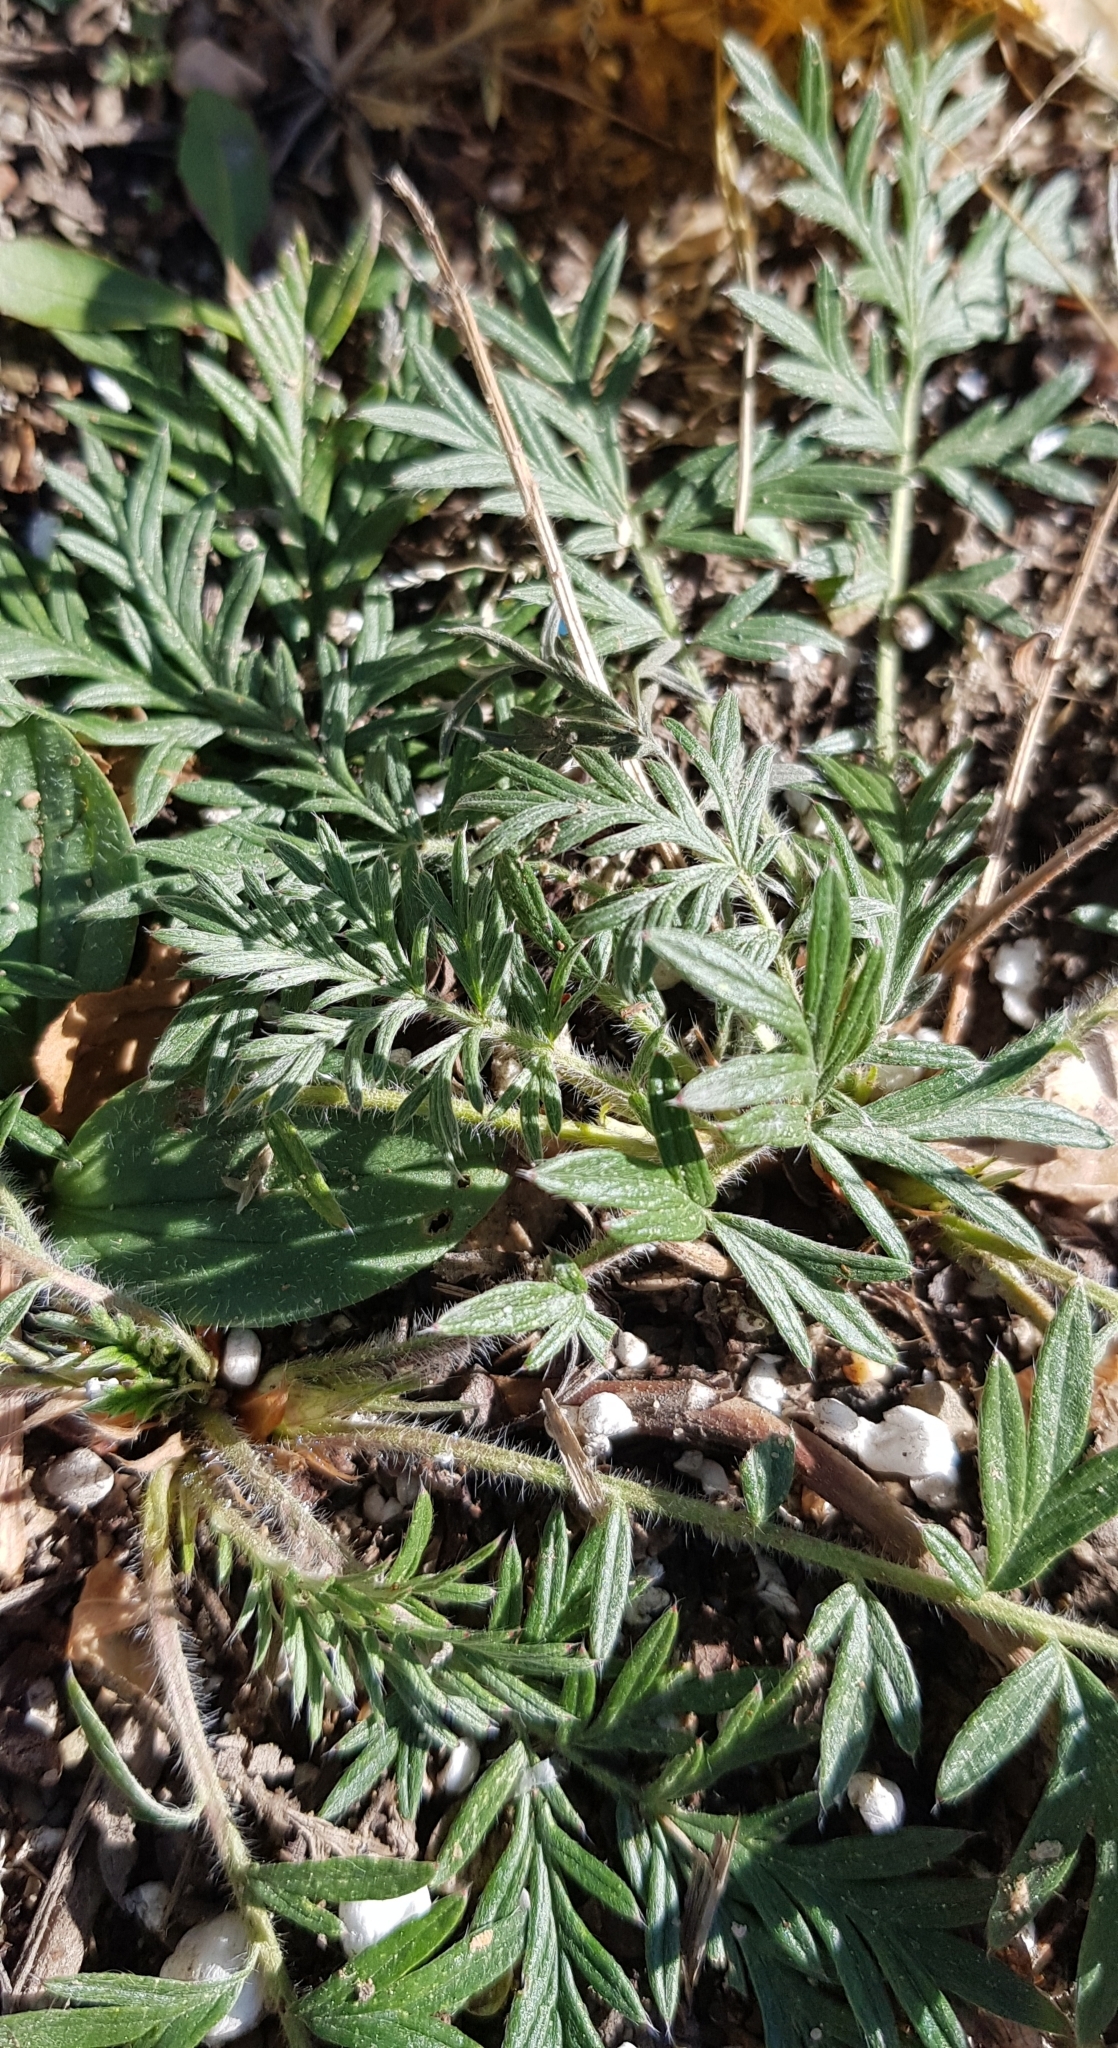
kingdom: Plantae
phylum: Tracheophyta
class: Magnoliopsida
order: Rosales
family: Rosaceae
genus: Potentilla
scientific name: Potentilla tergemina
